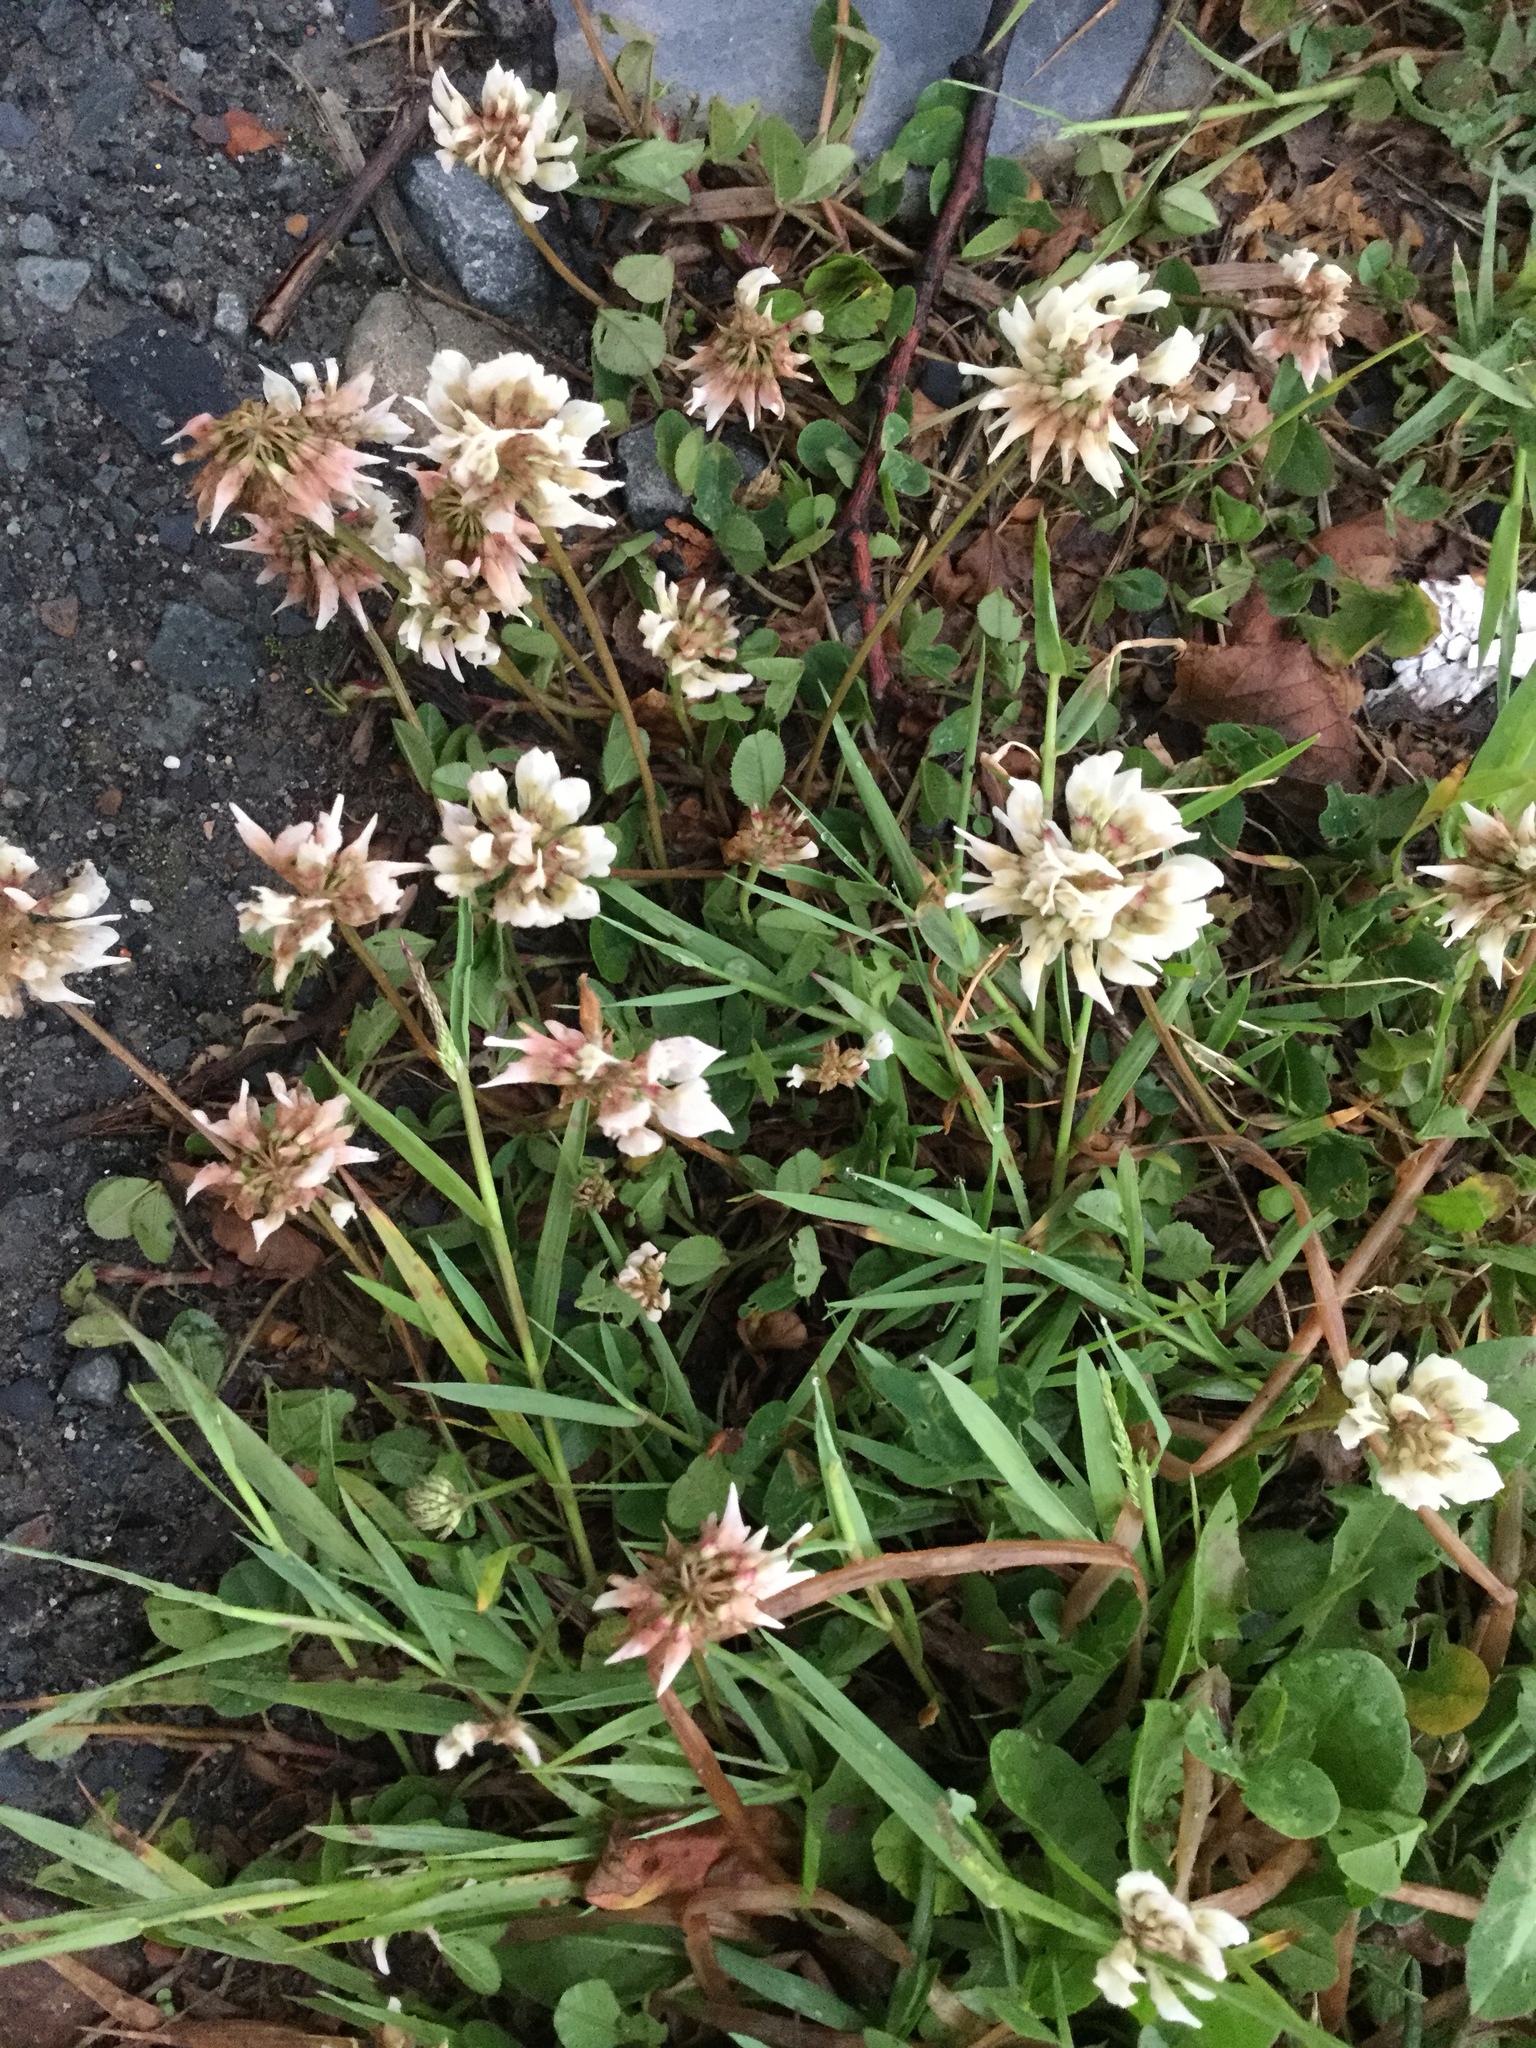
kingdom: Plantae
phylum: Tracheophyta
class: Magnoliopsida
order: Fabales
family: Fabaceae
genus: Trifolium
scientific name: Trifolium repens
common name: White clover
